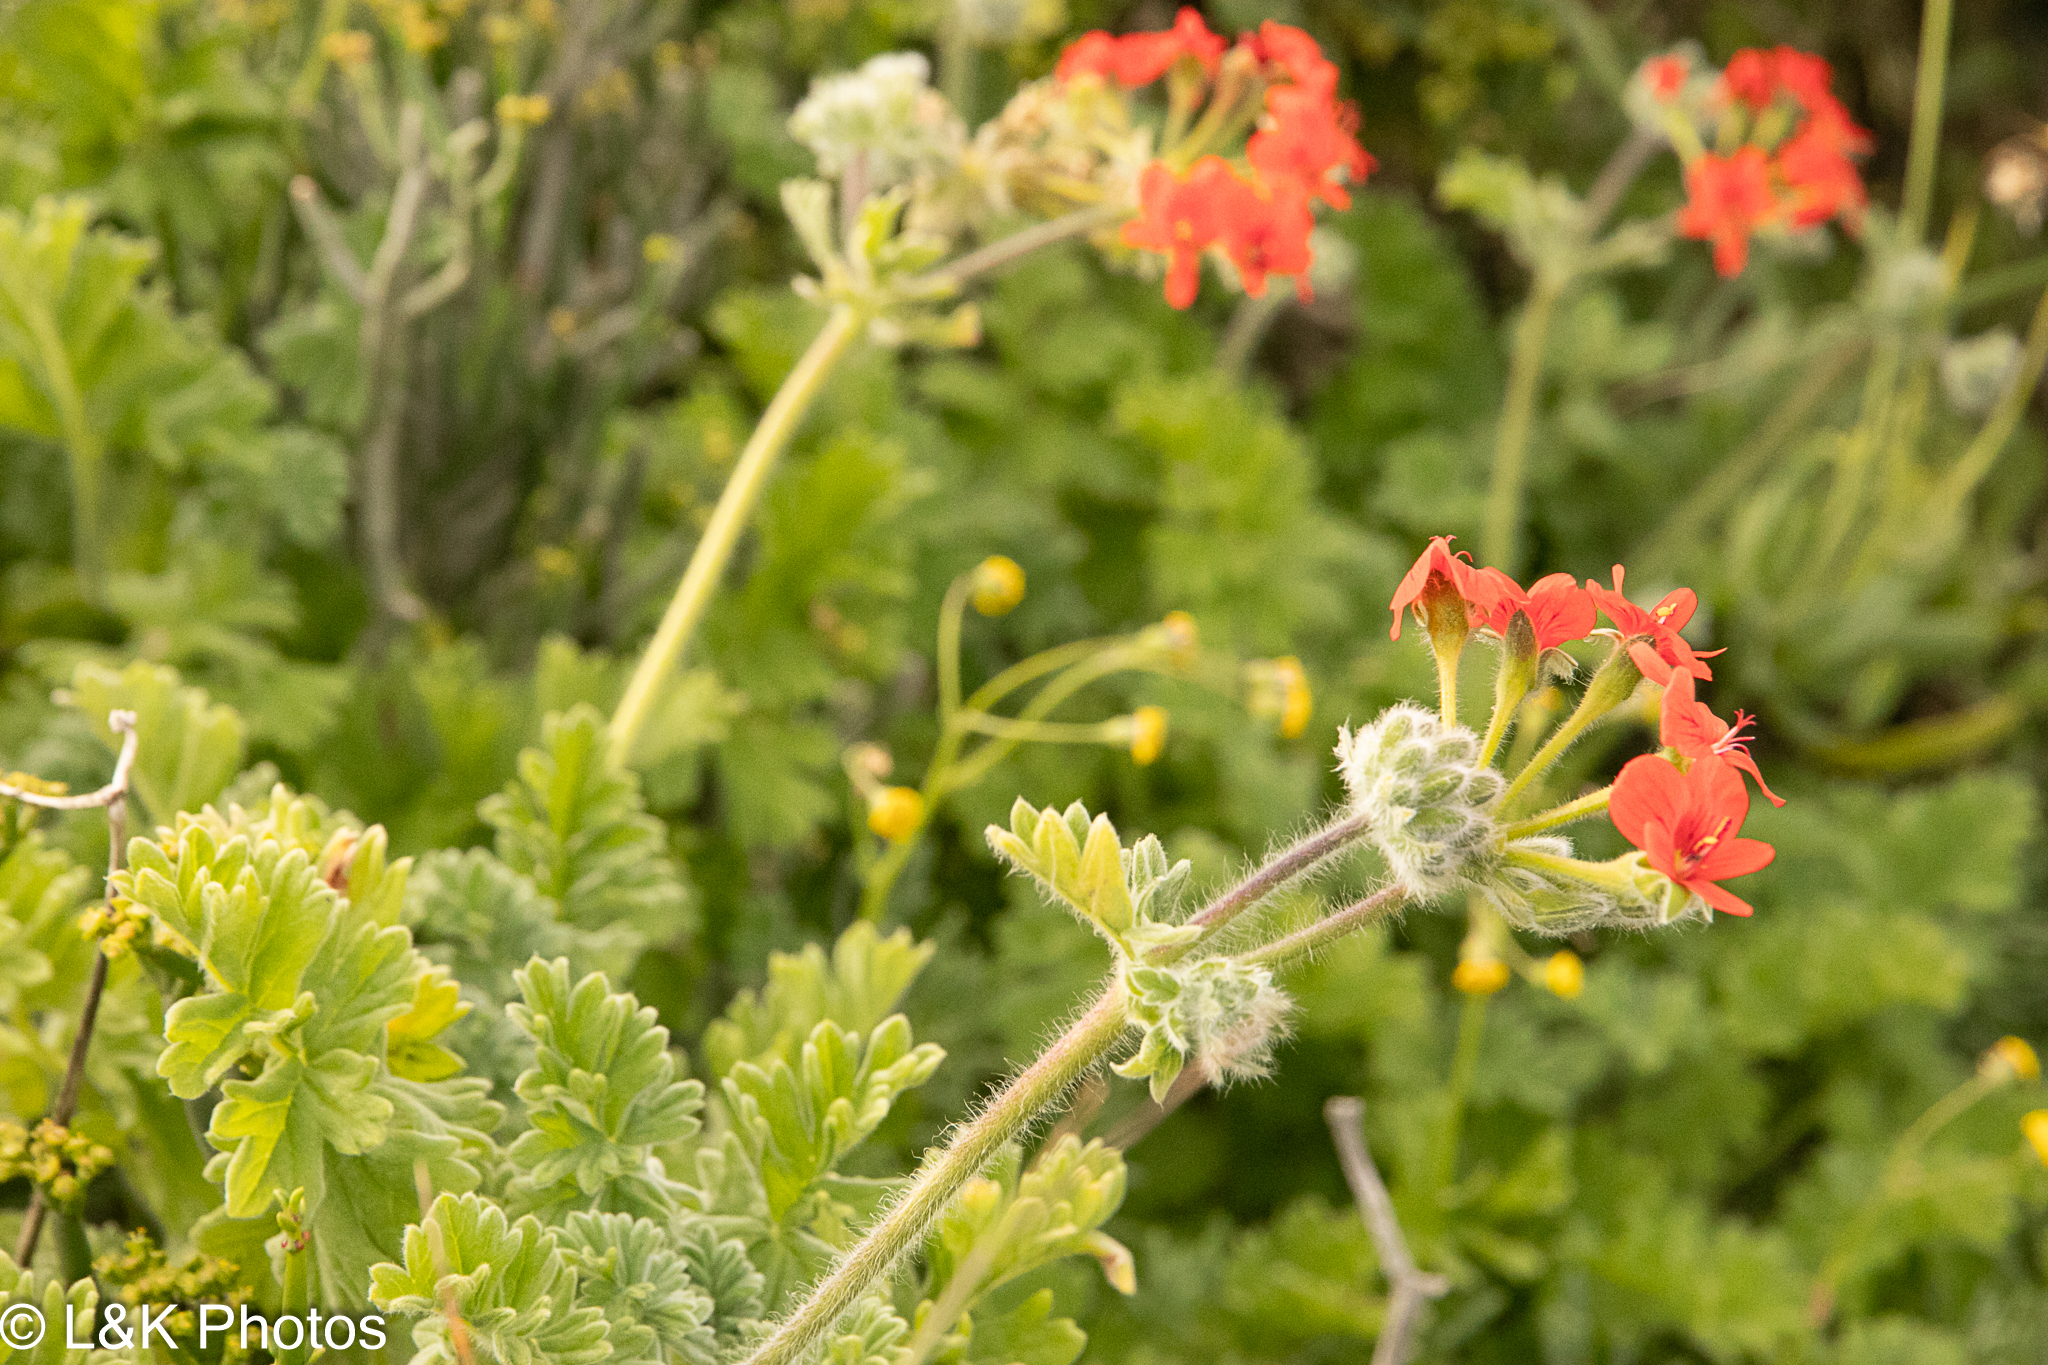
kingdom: Plantae
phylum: Tracheophyta
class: Magnoliopsida
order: Geraniales
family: Geraniaceae
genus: Pelargonium
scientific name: Pelargonium fulgidum
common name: Celandine-leaf pelargonium
